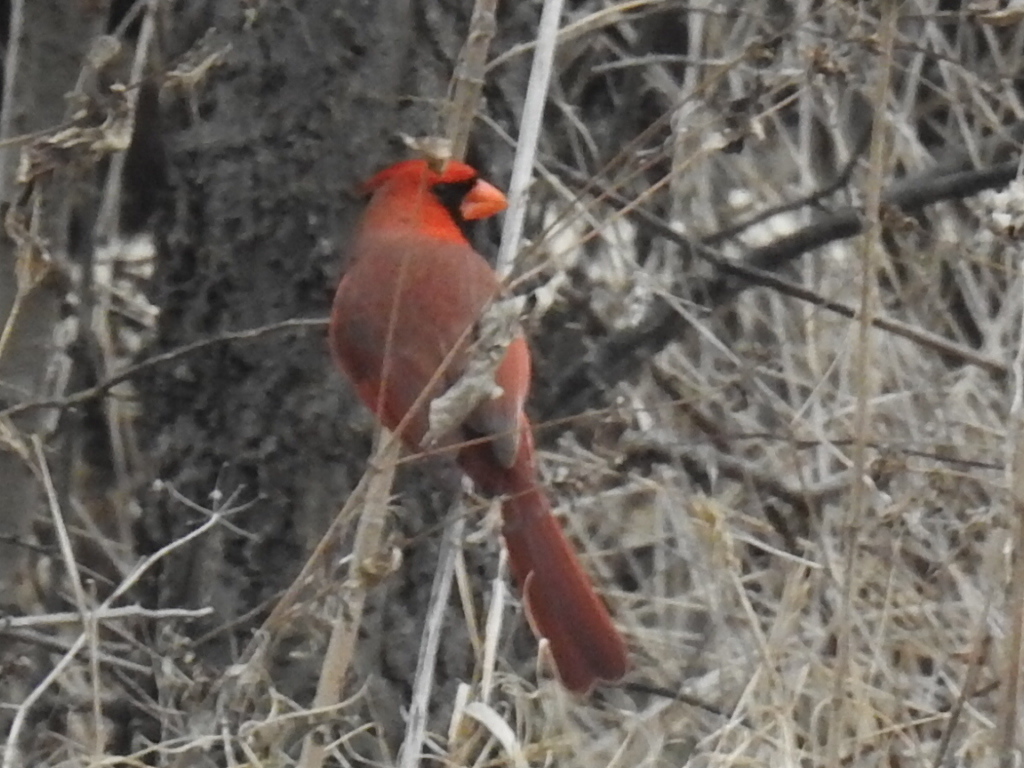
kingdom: Animalia
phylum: Chordata
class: Aves
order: Passeriformes
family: Cardinalidae
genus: Cardinalis
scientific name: Cardinalis cardinalis
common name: Northern cardinal
